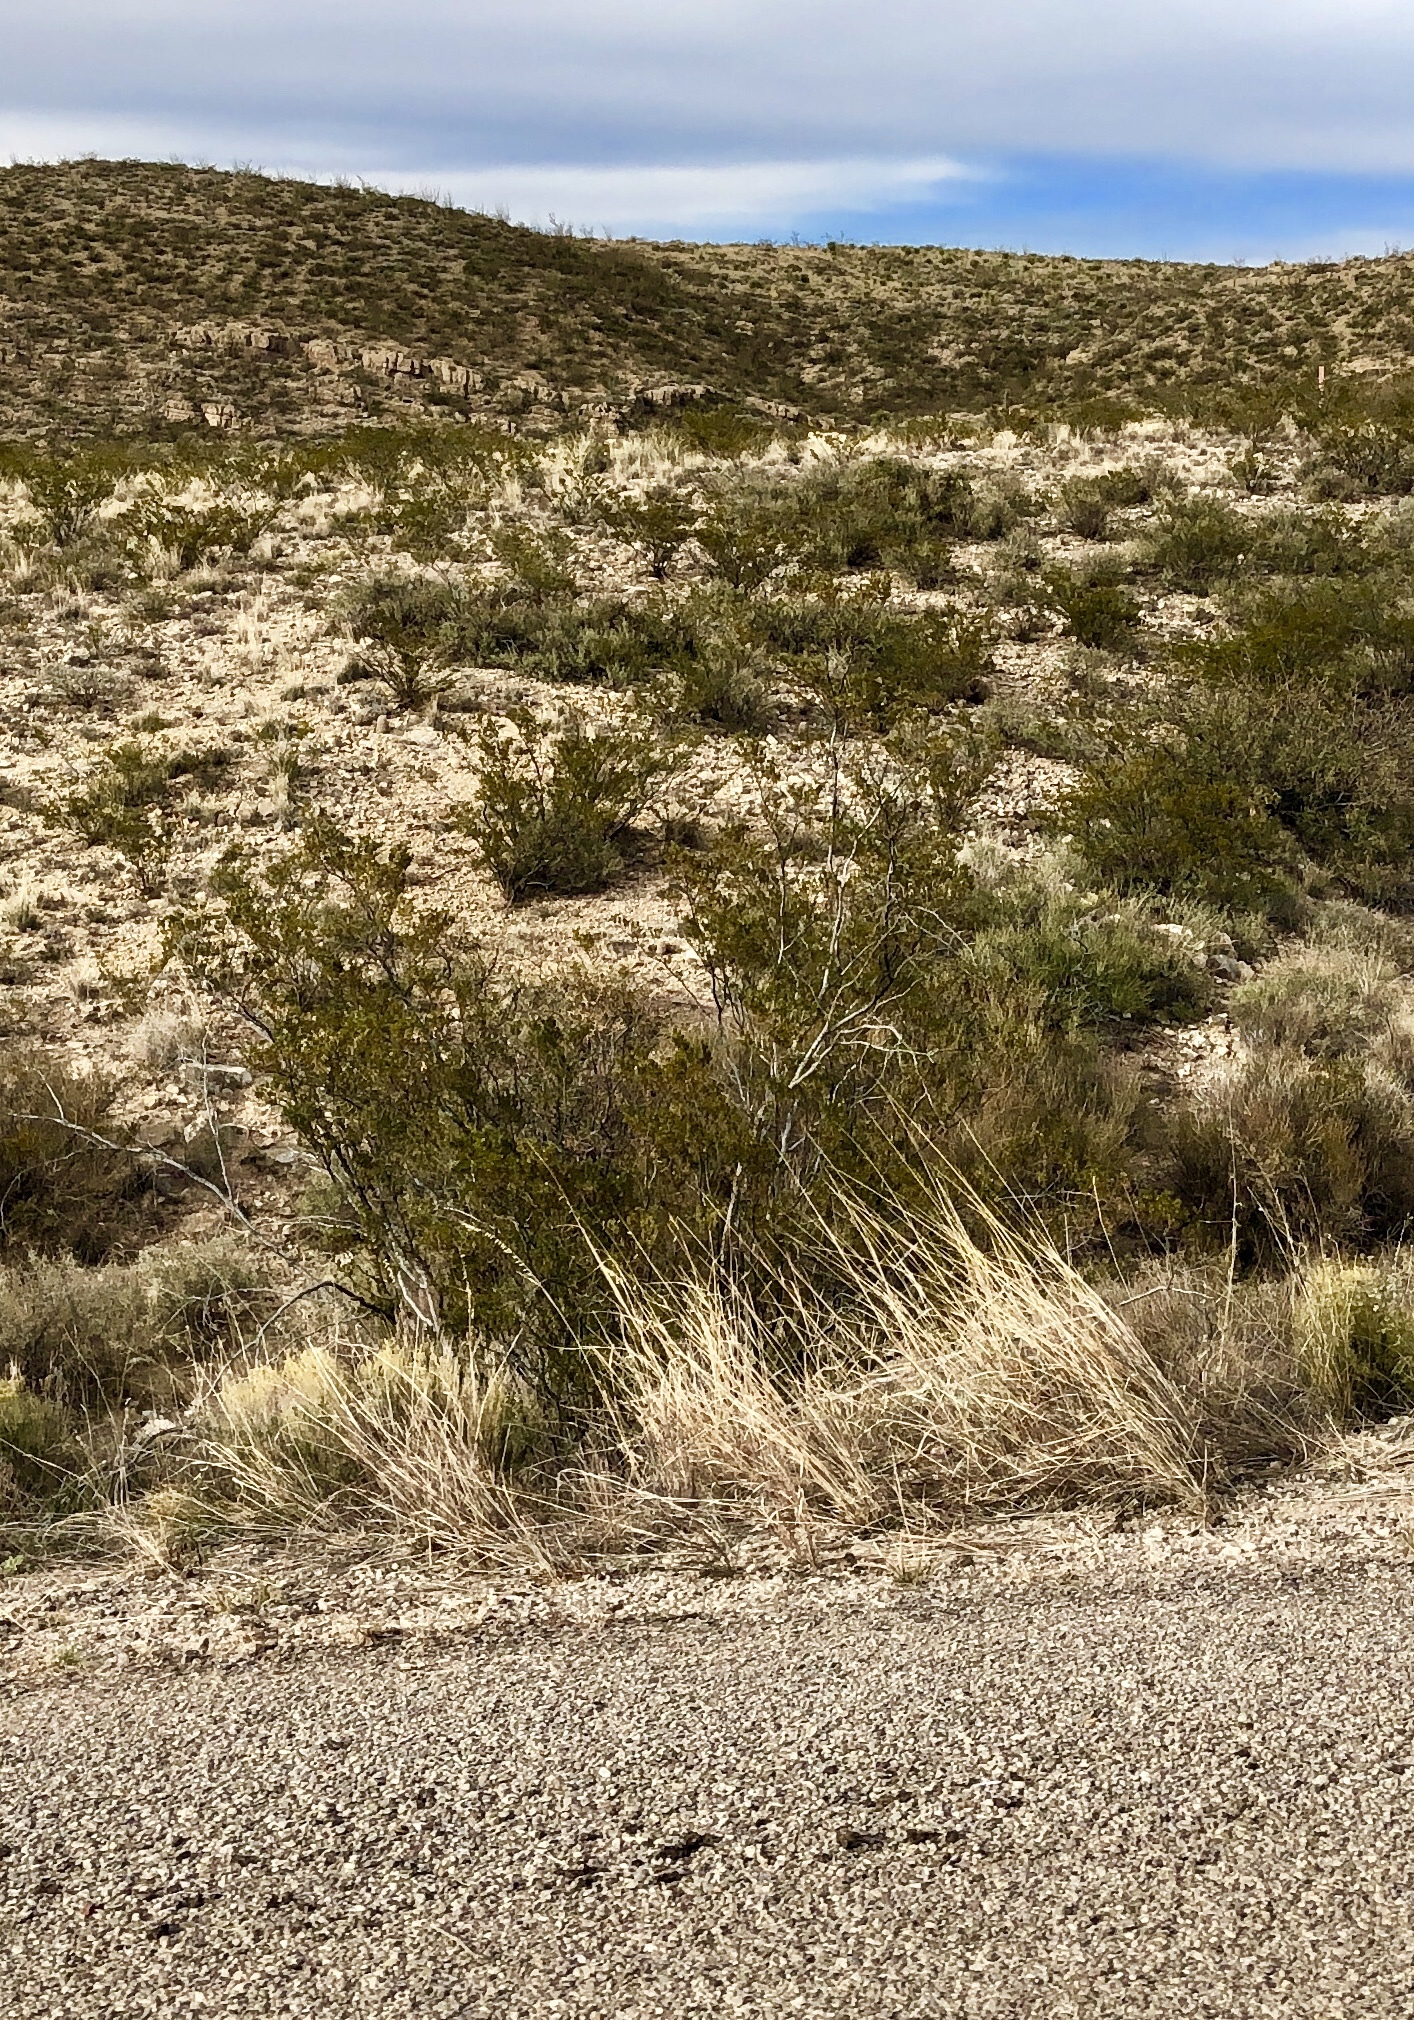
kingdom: Plantae
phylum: Tracheophyta
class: Magnoliopsida
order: Zygophyllales
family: Zygophyllaceae
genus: Larrea
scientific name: Larrea tridentata
